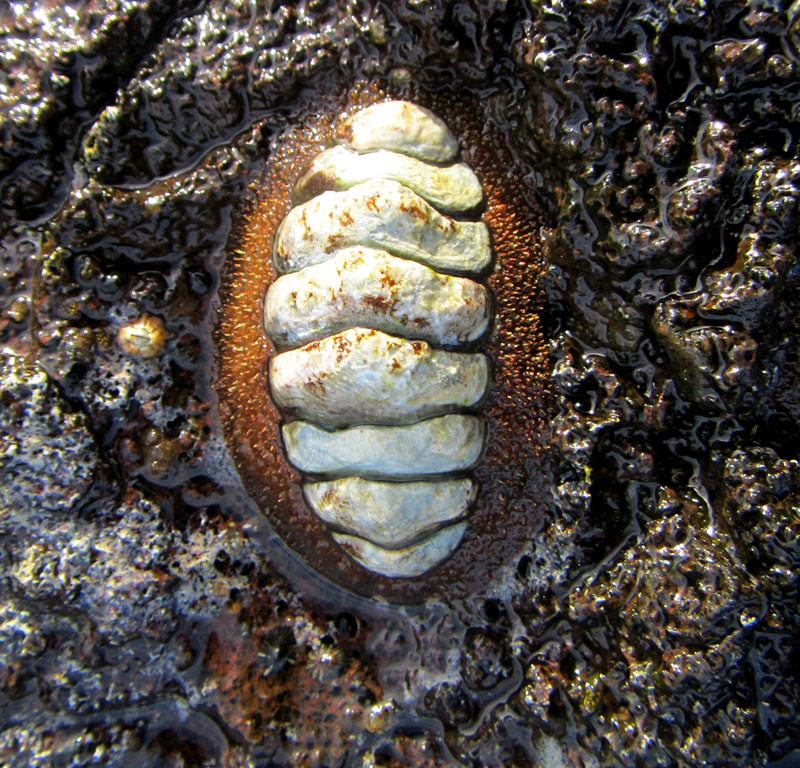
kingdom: Animalia
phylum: Mollusca
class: Polyplacophora
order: Chitonida
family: Mopaliidae
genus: Plaxiphora
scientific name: Plaxiphora mercatoris
